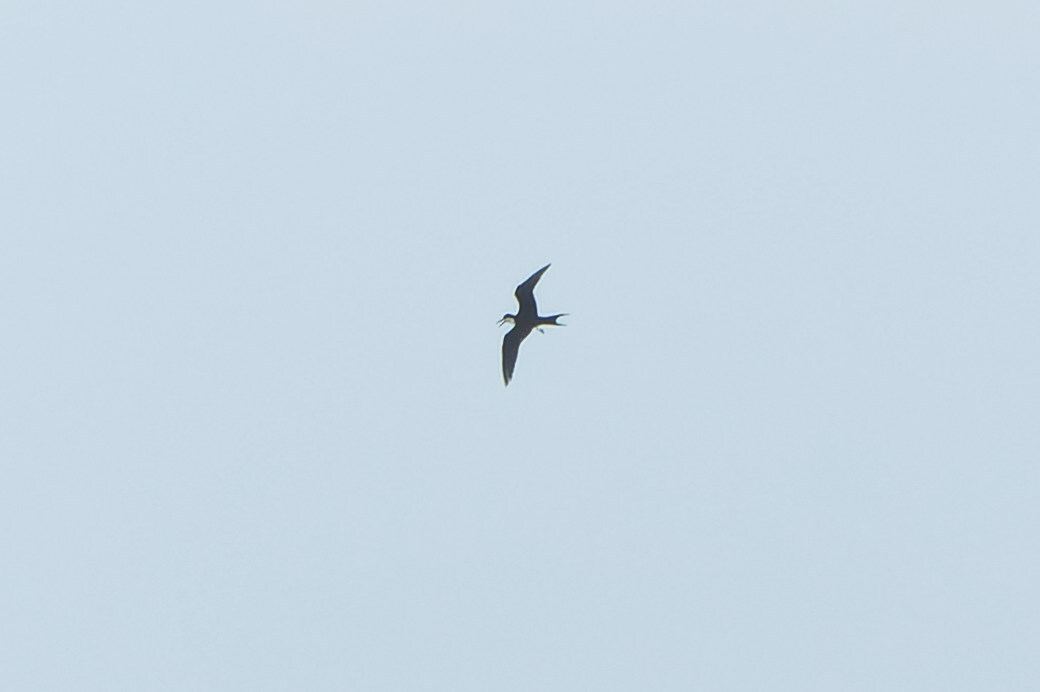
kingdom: Animalia
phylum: Chordata
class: Aves
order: Charadriiformes
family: Laridae
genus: Onychoprion
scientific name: Onychoprion fuscatus
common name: Sooty tern
